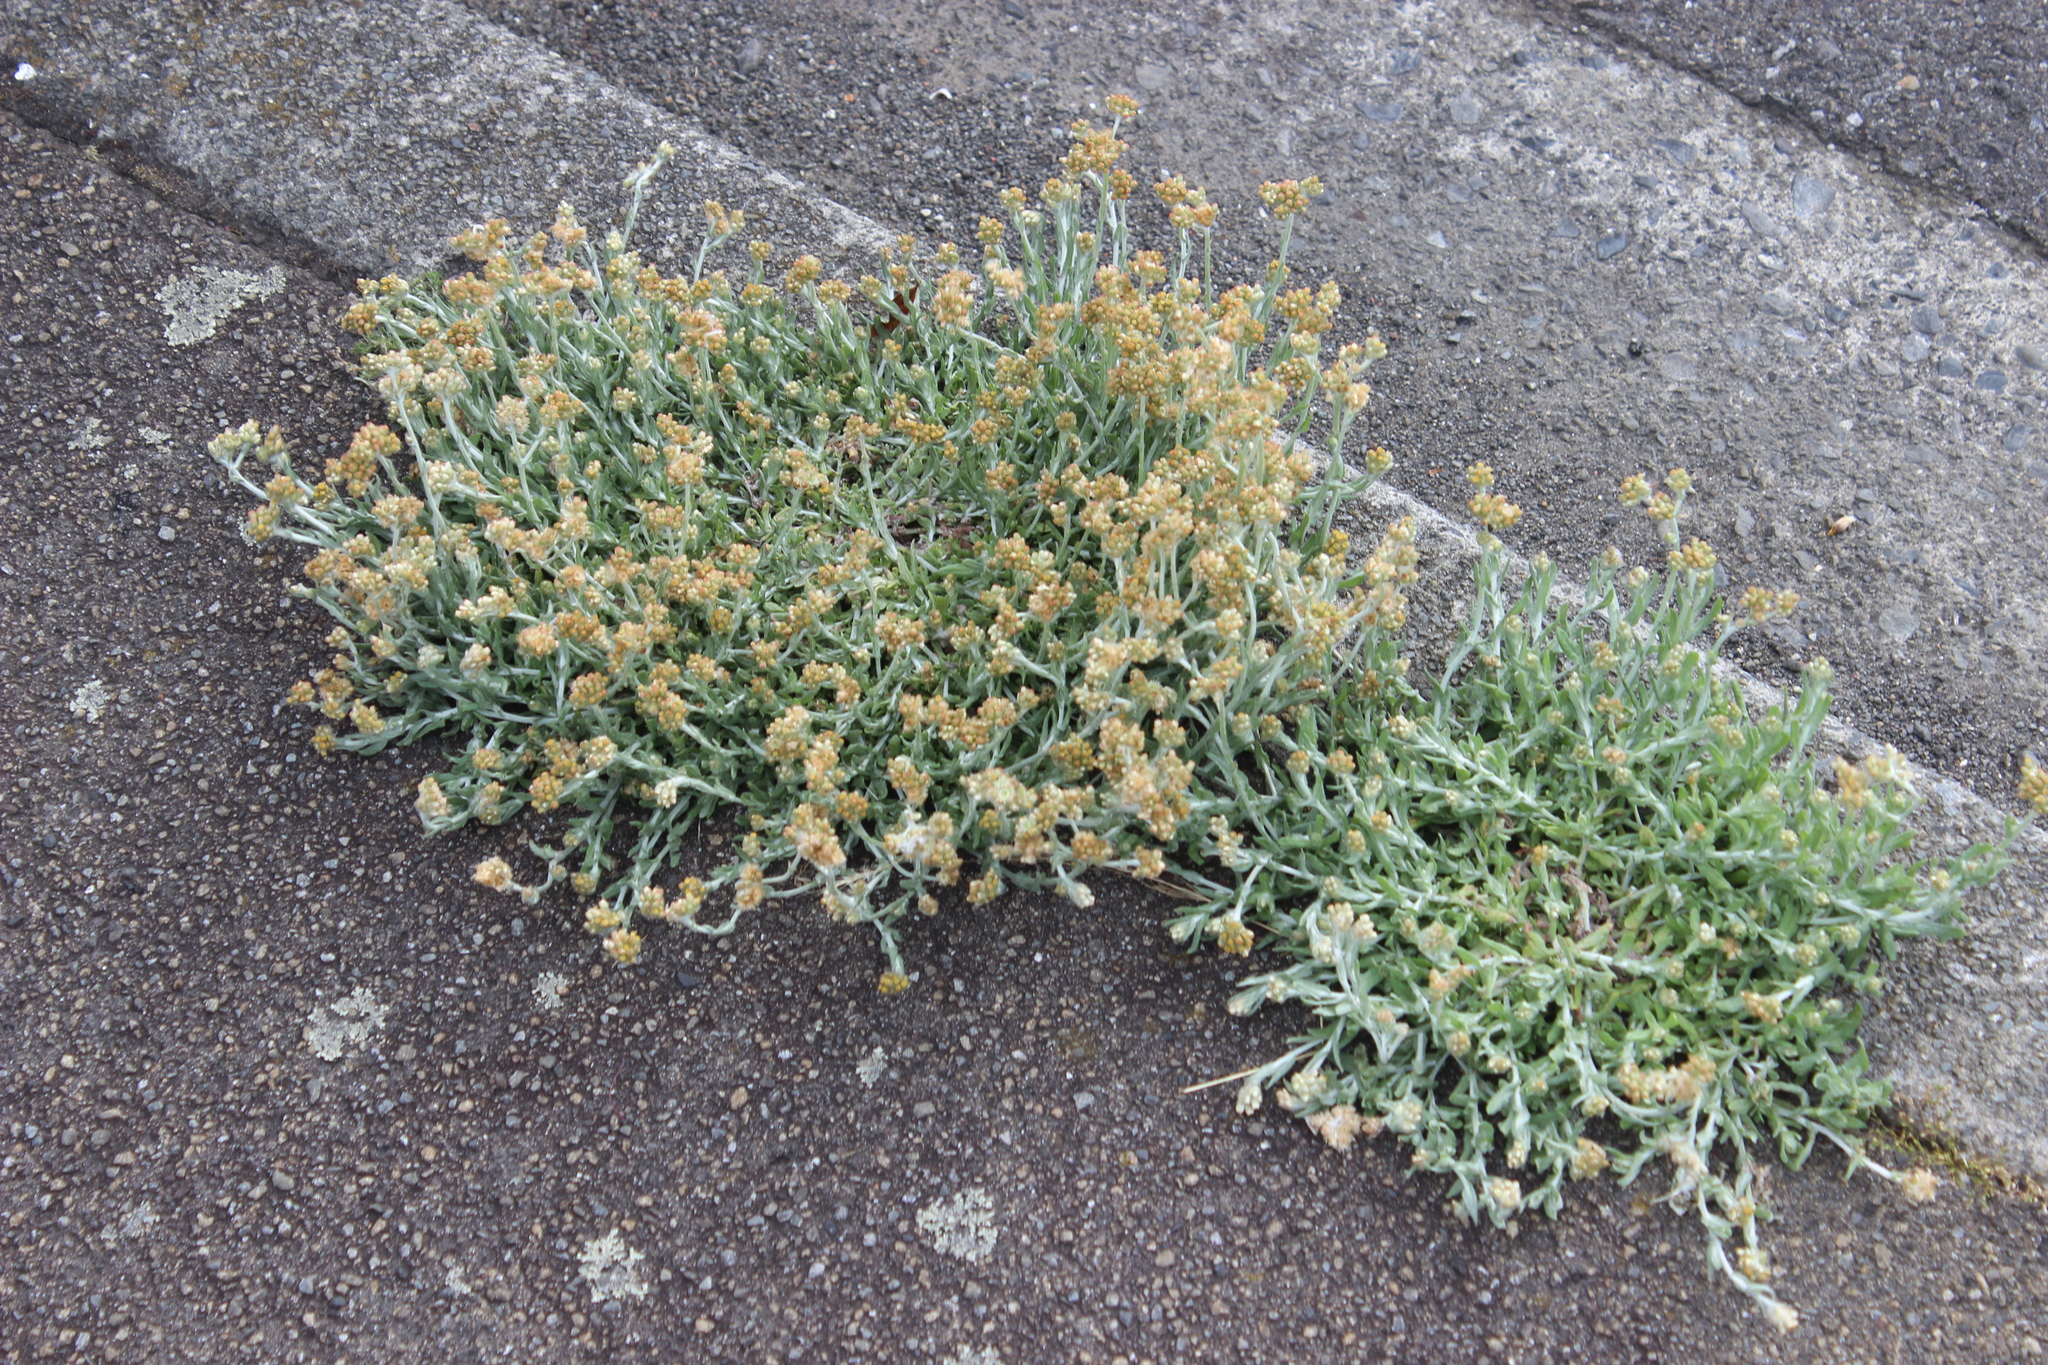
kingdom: Plantae
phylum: Tracheophyta
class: Magnoliopsida
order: Asterales
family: Asteraceae
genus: Helichrysum
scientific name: Helichrysum luteoalbum
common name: Daisy
